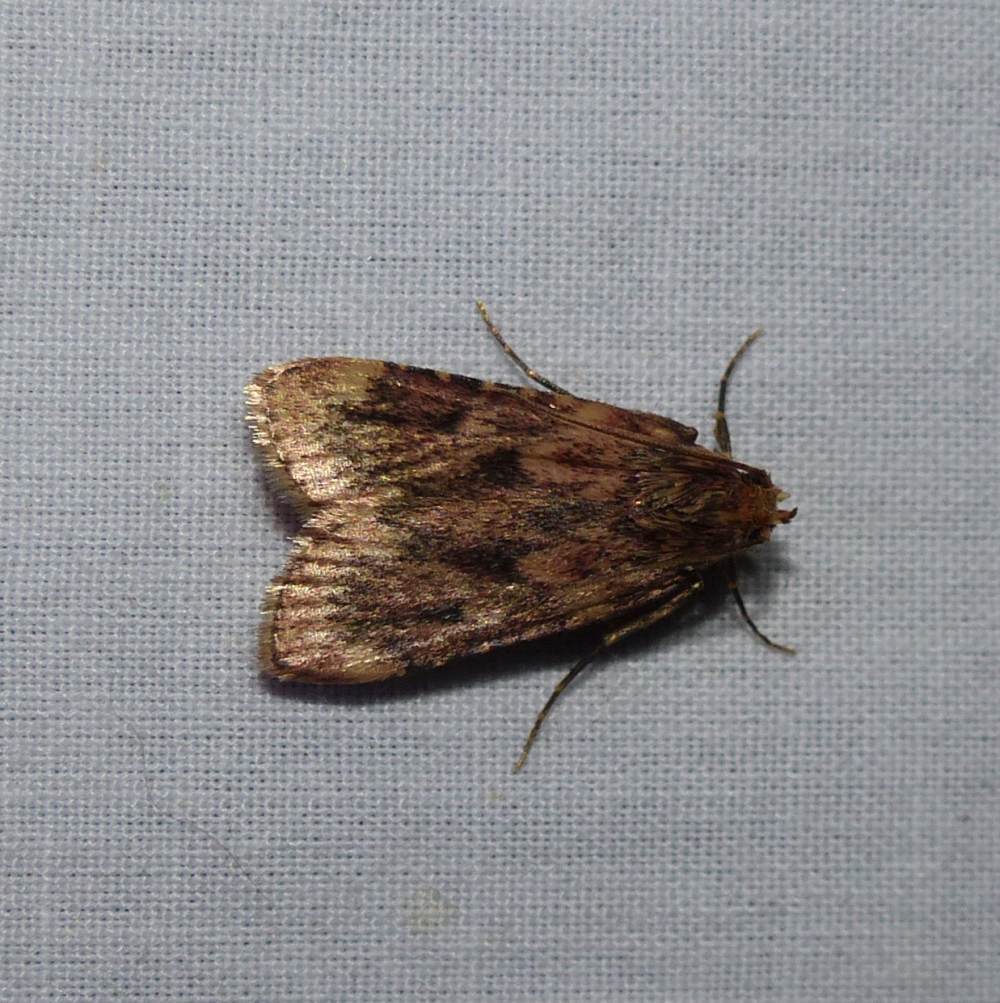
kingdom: Animalia
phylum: Arthropoda
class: Insecta
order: Lepidoptera
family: Pyralidae
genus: Aglossa
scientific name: Aglossa cuprina
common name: Grease moth
